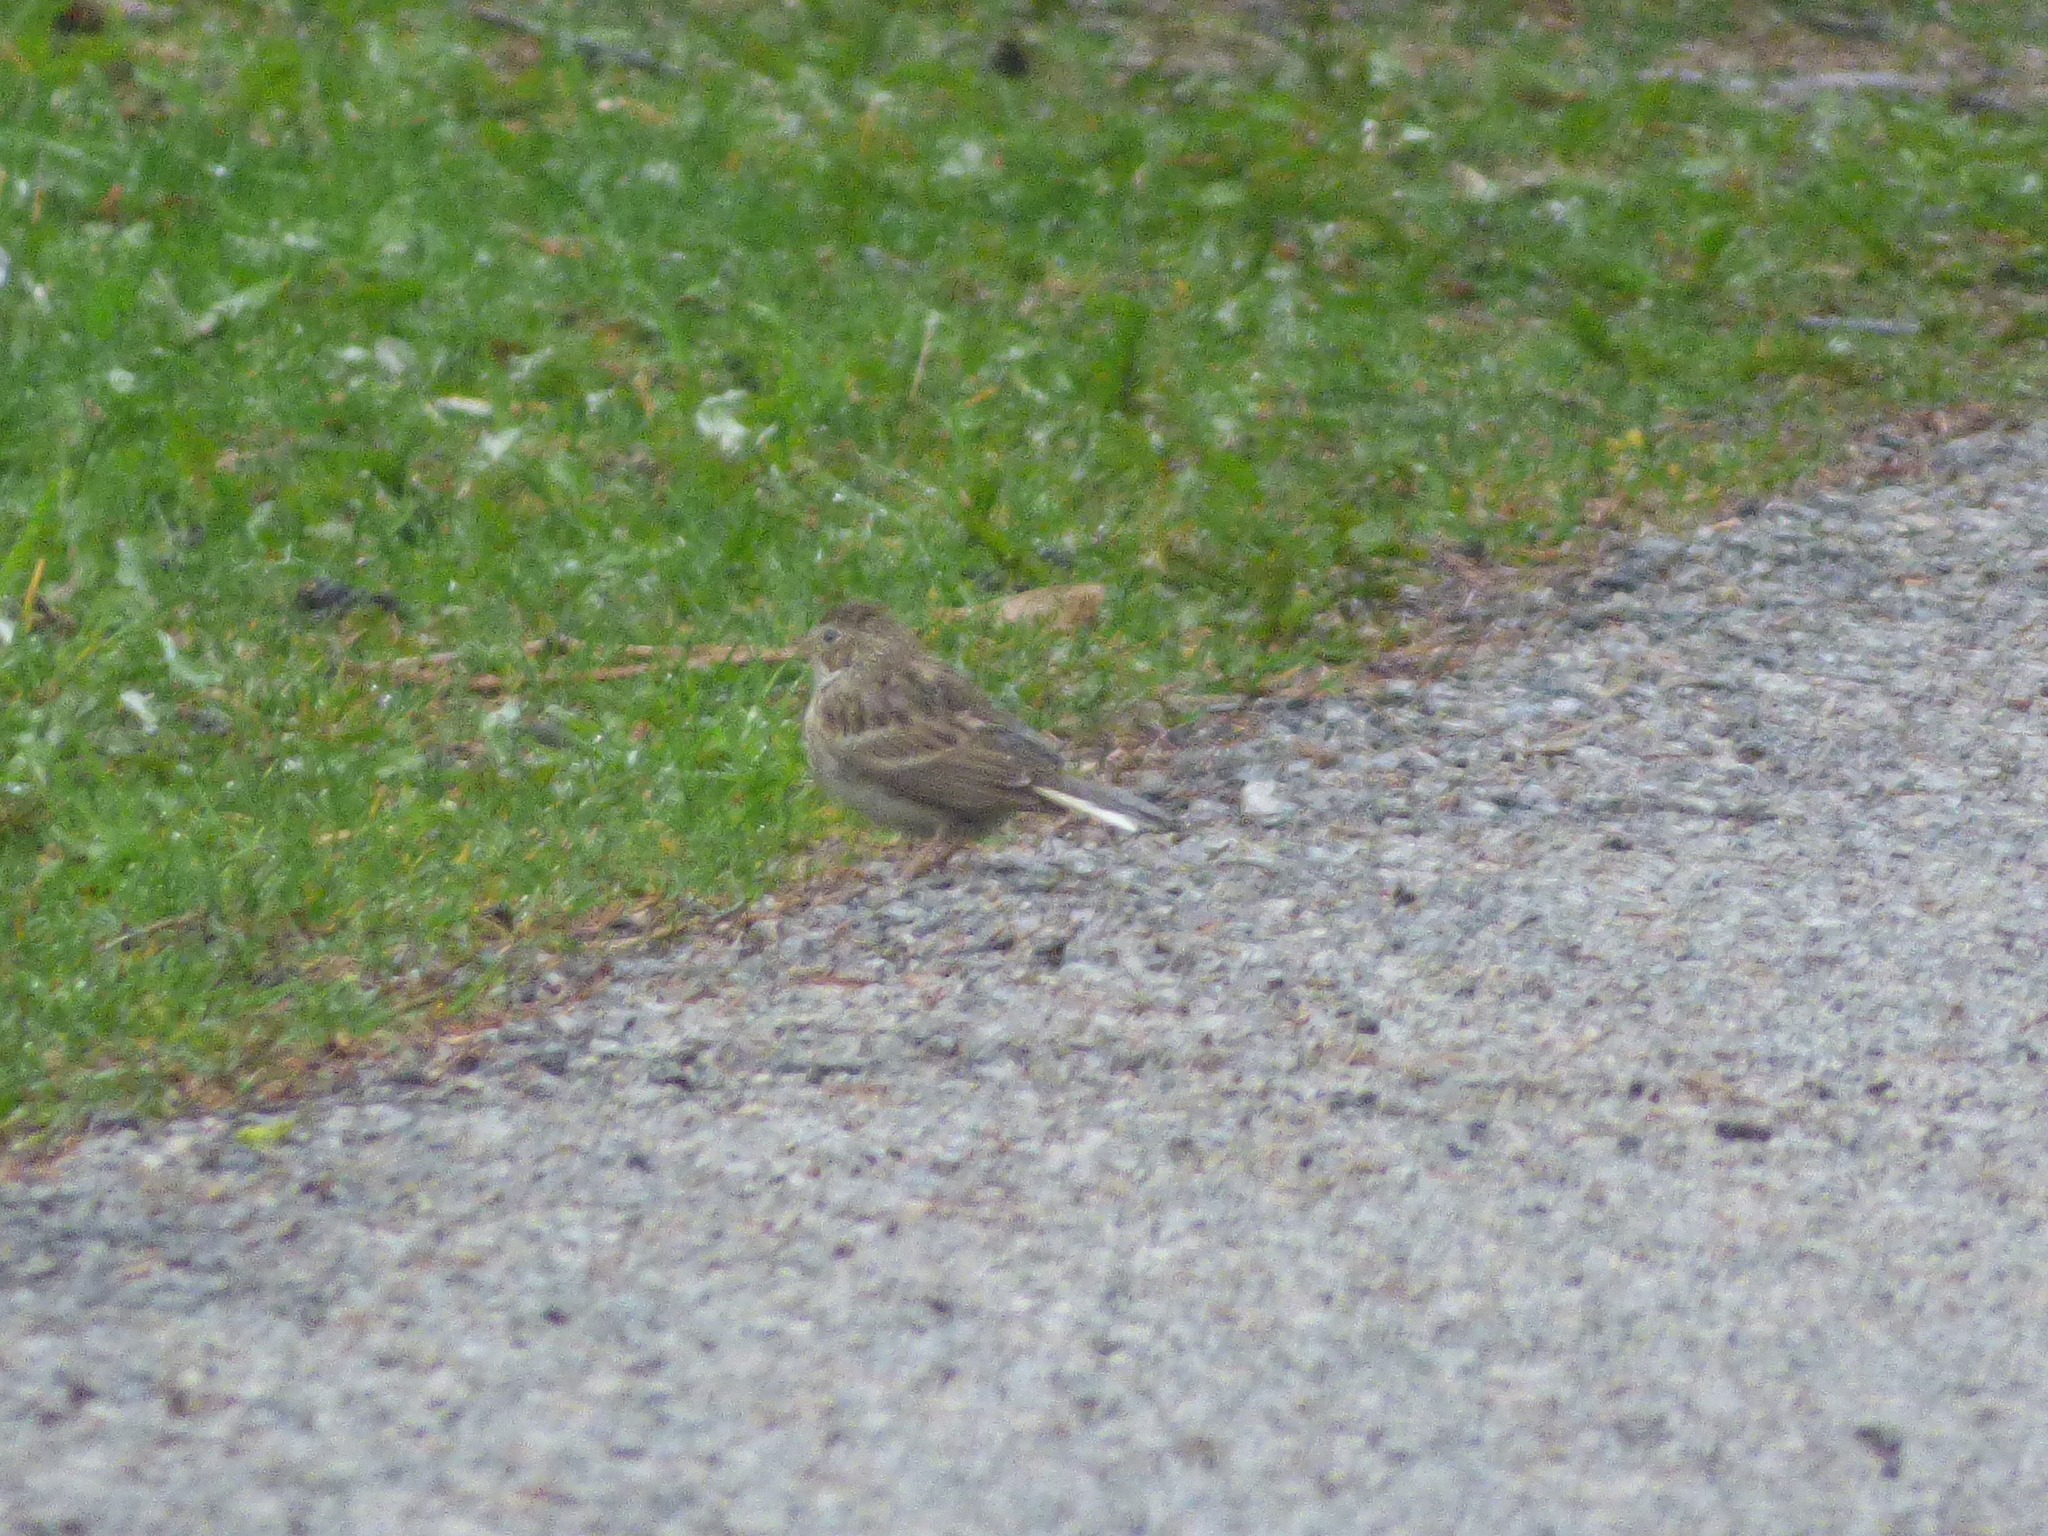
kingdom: Animalia
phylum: Chordata
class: Aves
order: Passeriformes
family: Passerellidae
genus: Pooecetes
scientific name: Pooecetes gramineus
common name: Vesper sparrow
